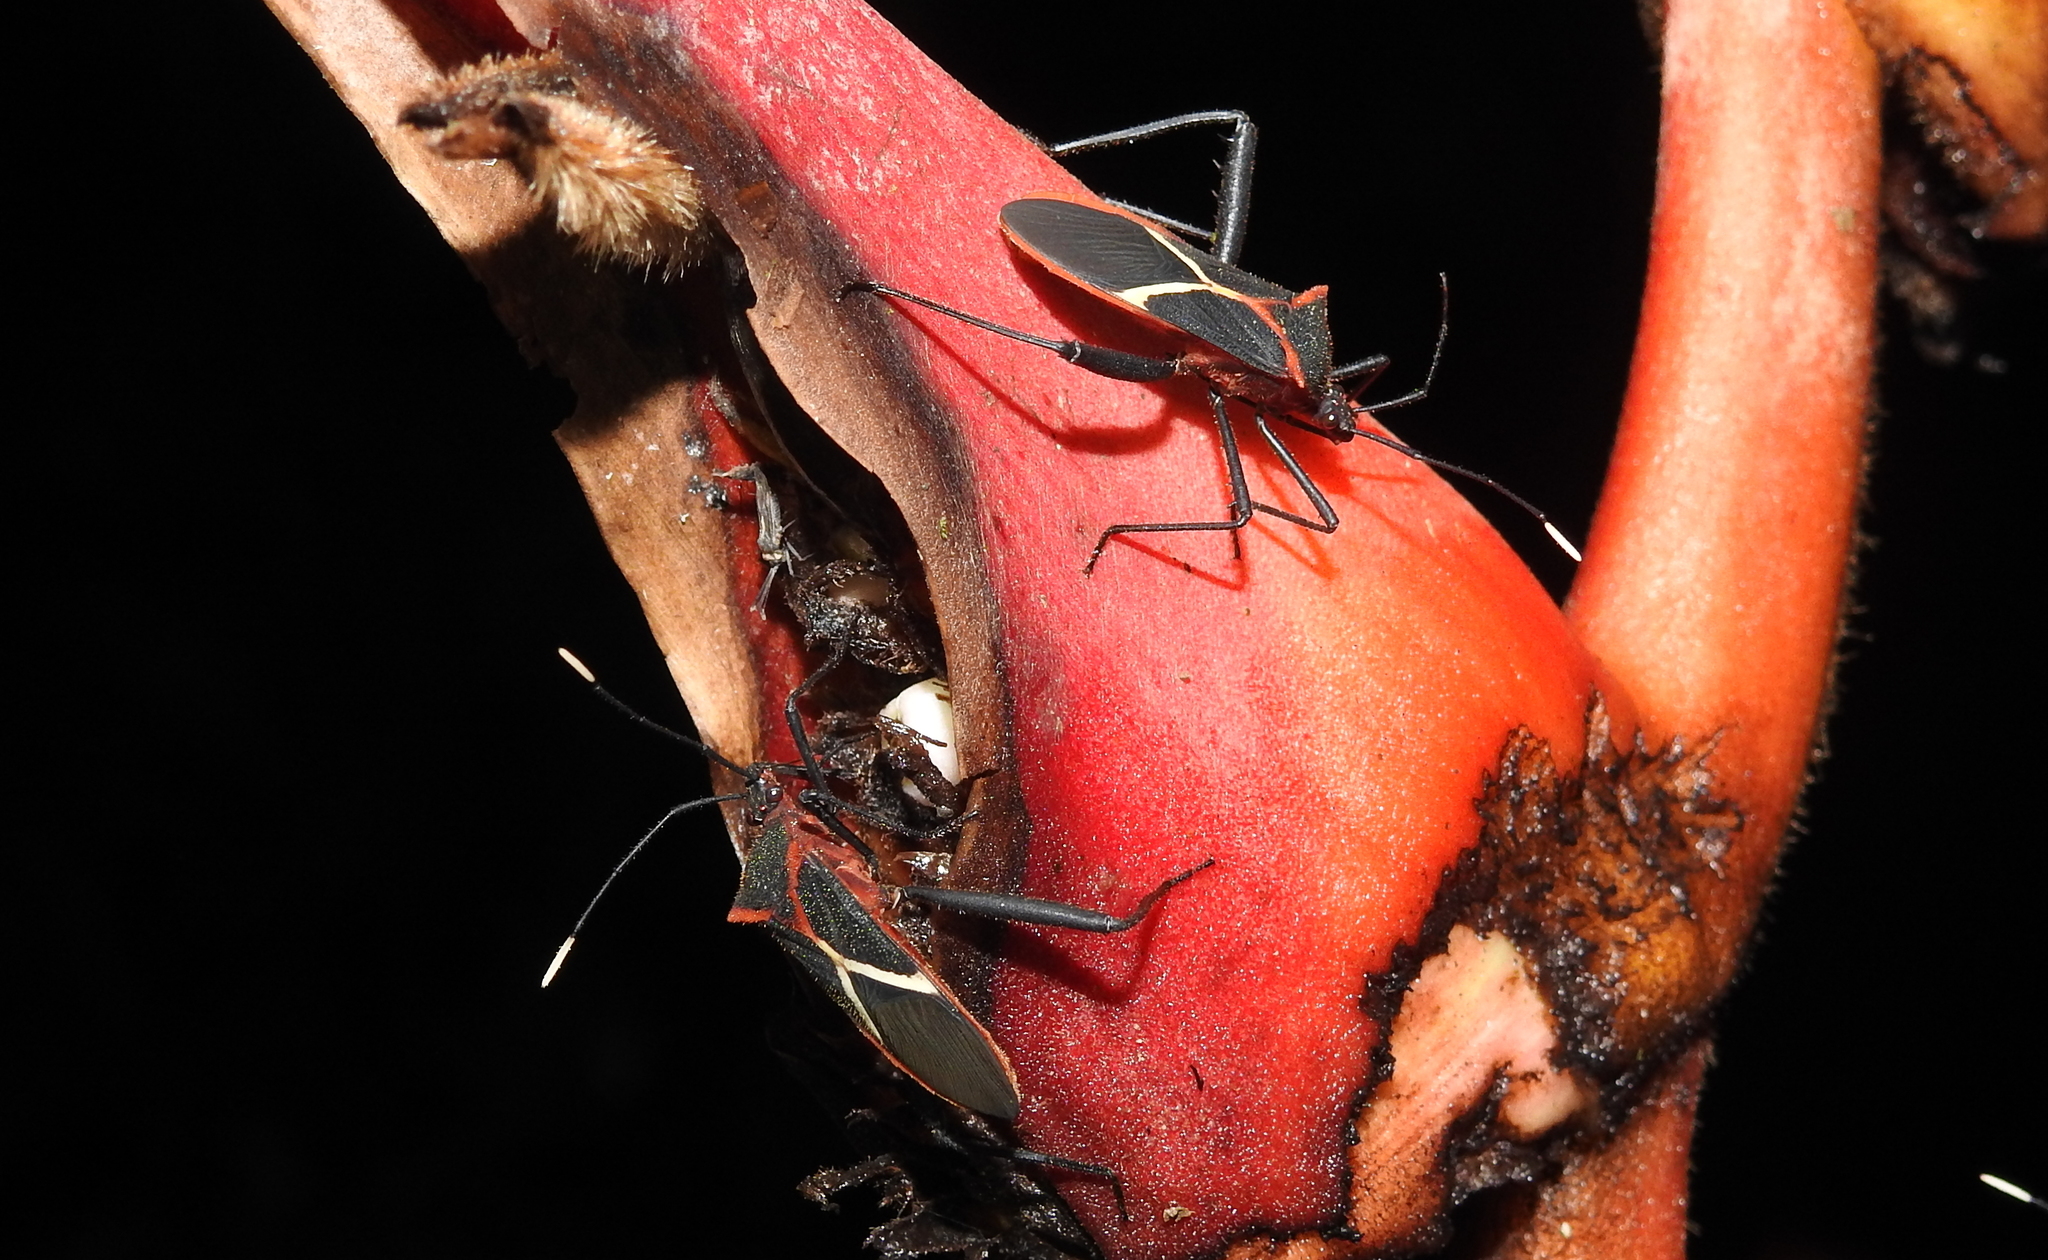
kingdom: Animalia
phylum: Arthropoda
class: Insecta
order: Hemiptera
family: Coreidae
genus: Leptoscelis
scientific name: Leptoscelis tricolor
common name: Heliconia bug
